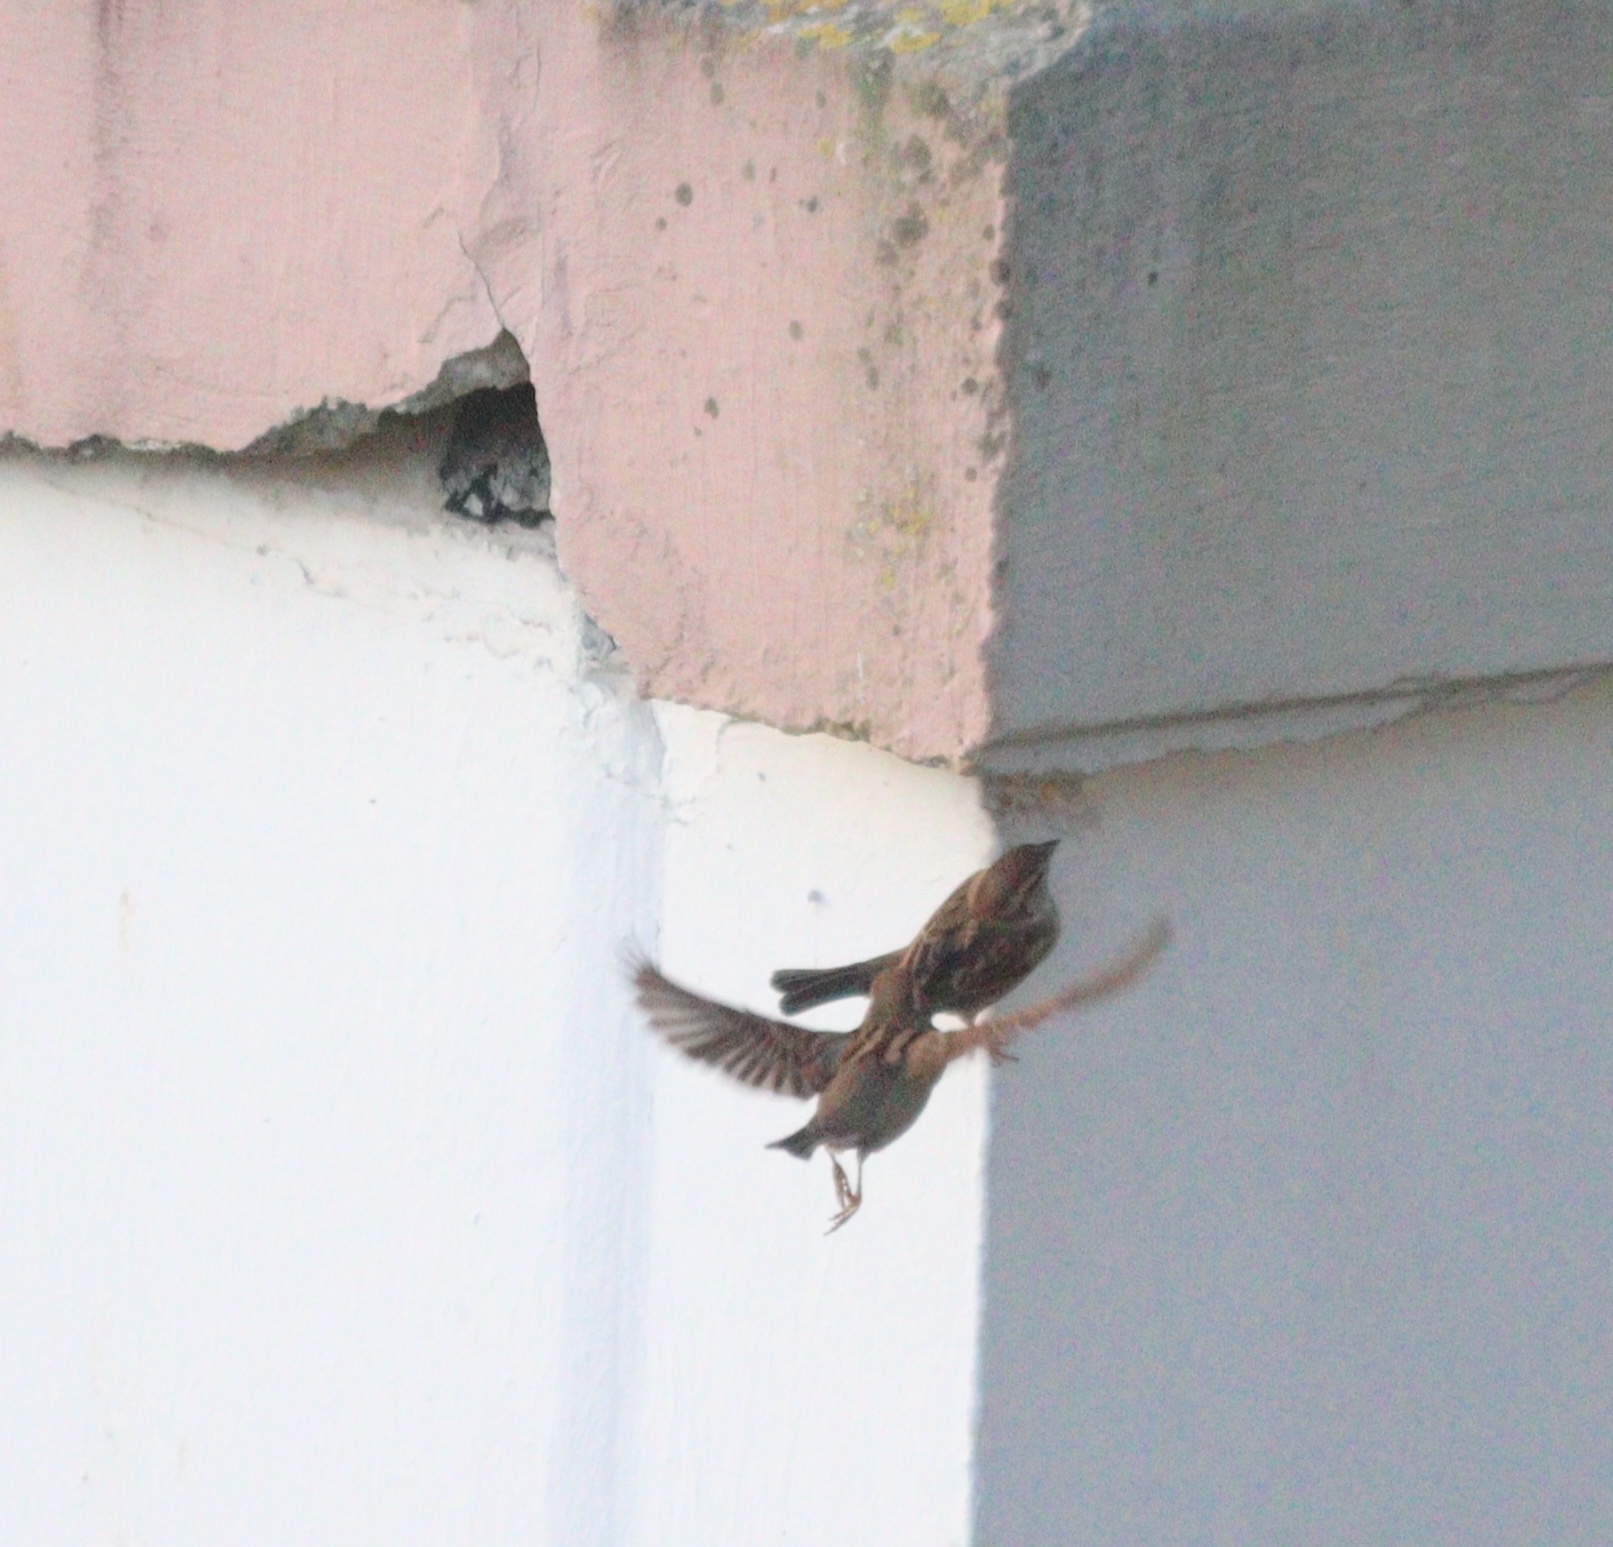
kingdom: Animalia
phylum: Chordata
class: Aves
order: Passeriformes
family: Passeridae
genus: Passer
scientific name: Passer domesticus
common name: House sparrow
